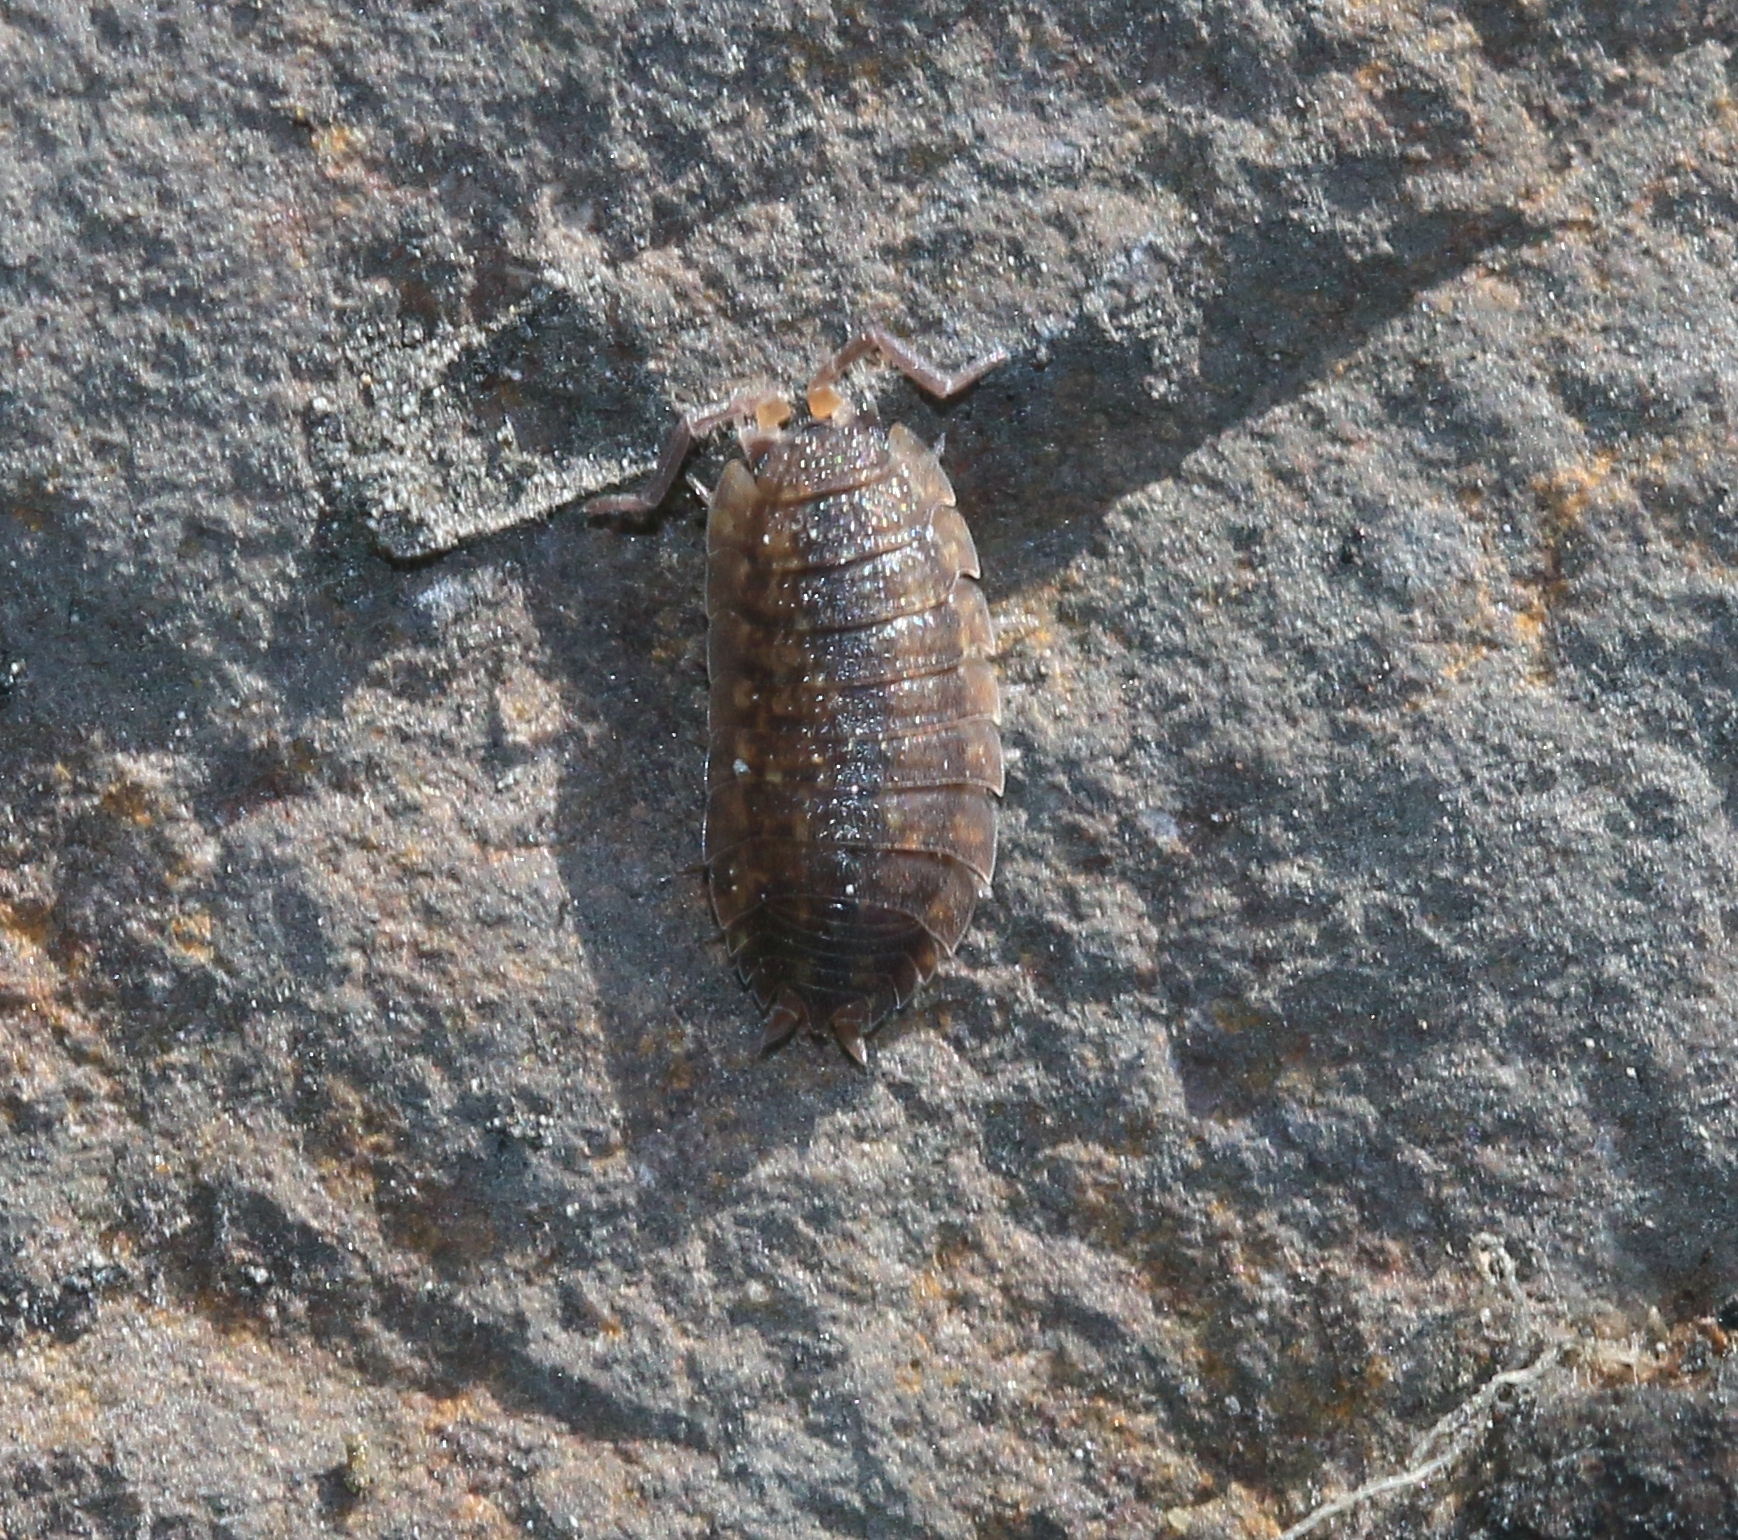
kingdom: Animalia
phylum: Arthropoda
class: Malacostraca
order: Isopoda
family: Porcellionidae
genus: Porcellio
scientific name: Porcellio scaber
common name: Common rough woodlouse
